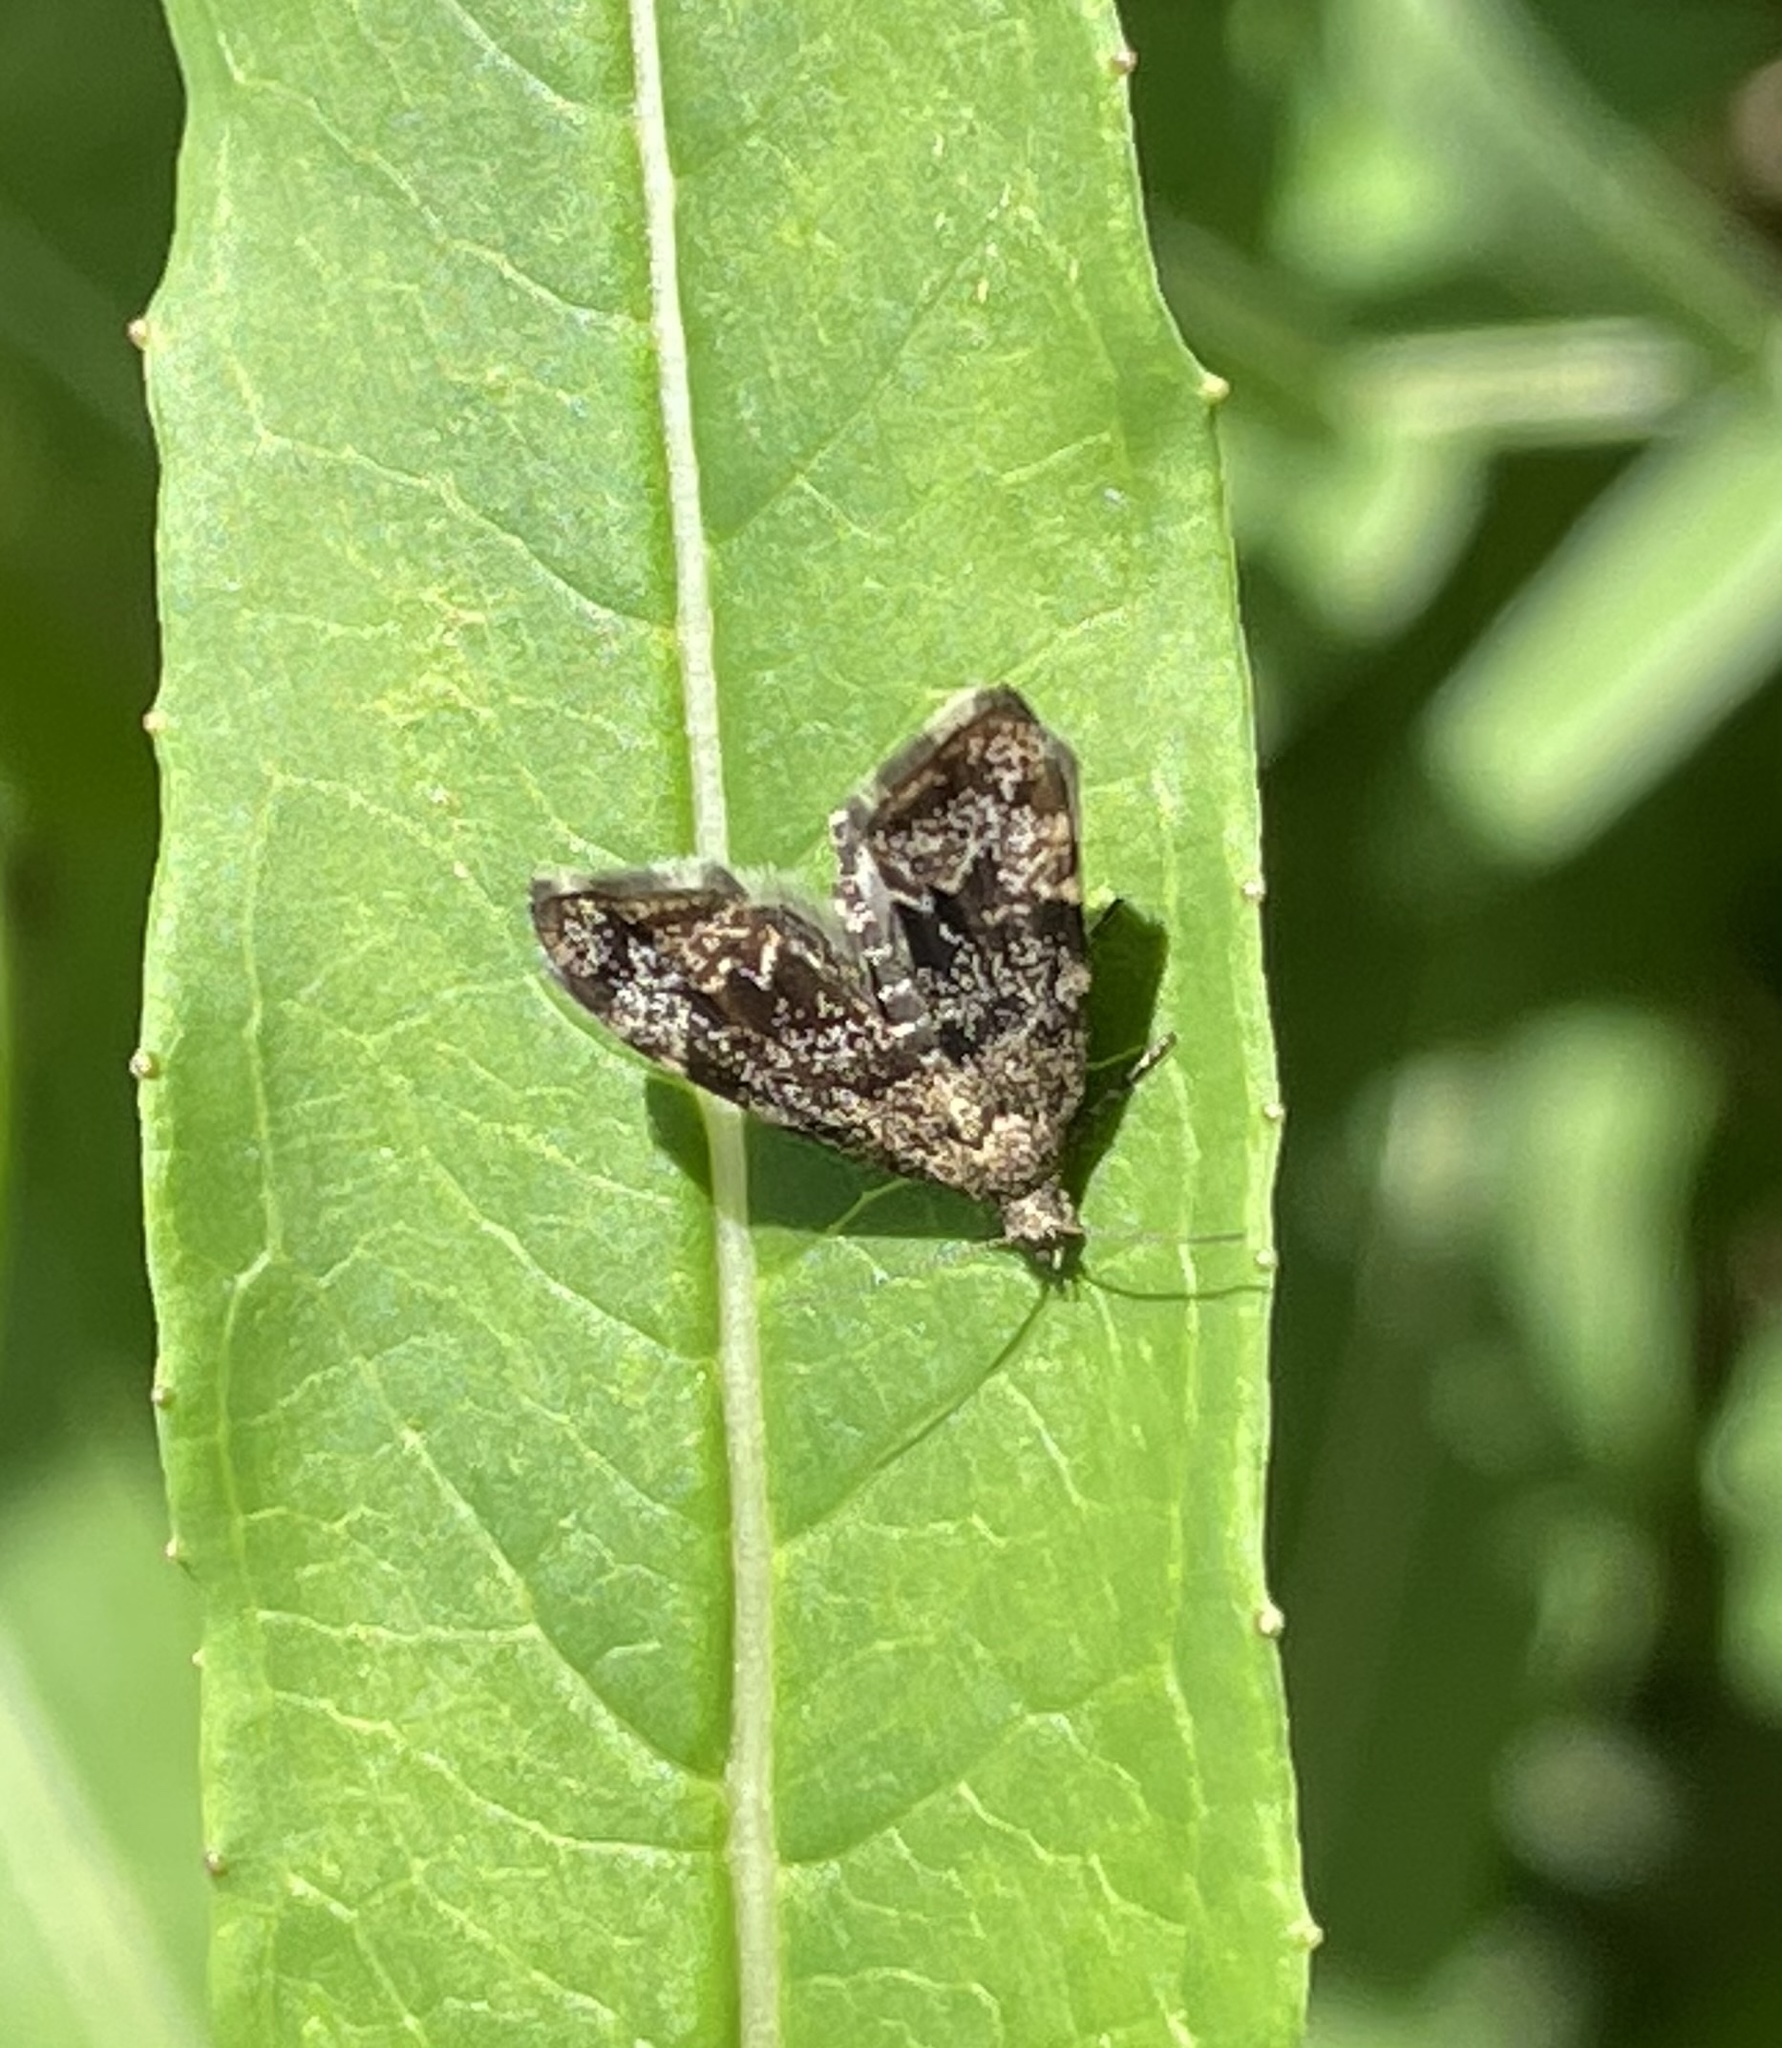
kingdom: Animalia
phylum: Arthropoda
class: Insecta
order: Lepidoptera
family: Choreutidae
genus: Anthophila
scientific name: Anthophila fabriciana
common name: Nettle-tap
